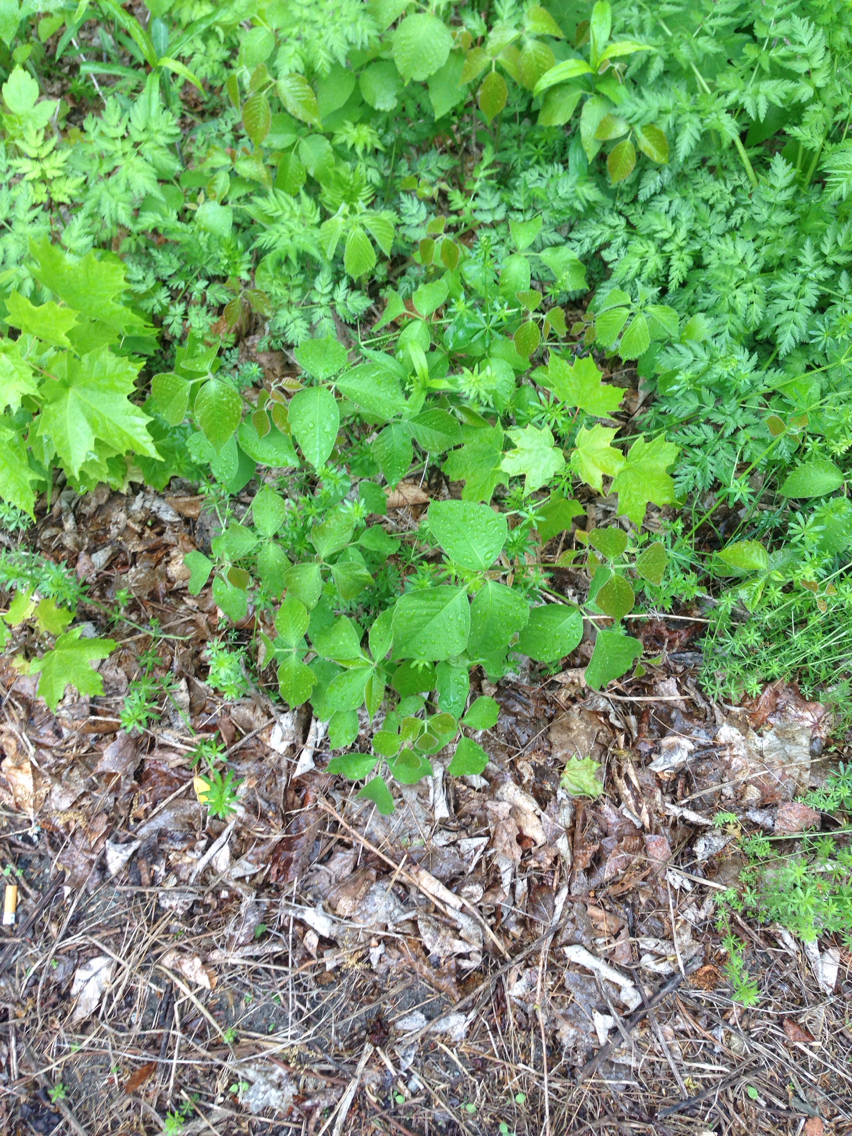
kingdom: Plantae
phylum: Tracheophyta
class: Magnoliopsida
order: Sapindales
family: Anacardiaceae
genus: Toxicodendron
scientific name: Toxicodendron radicans
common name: Poison ivy
